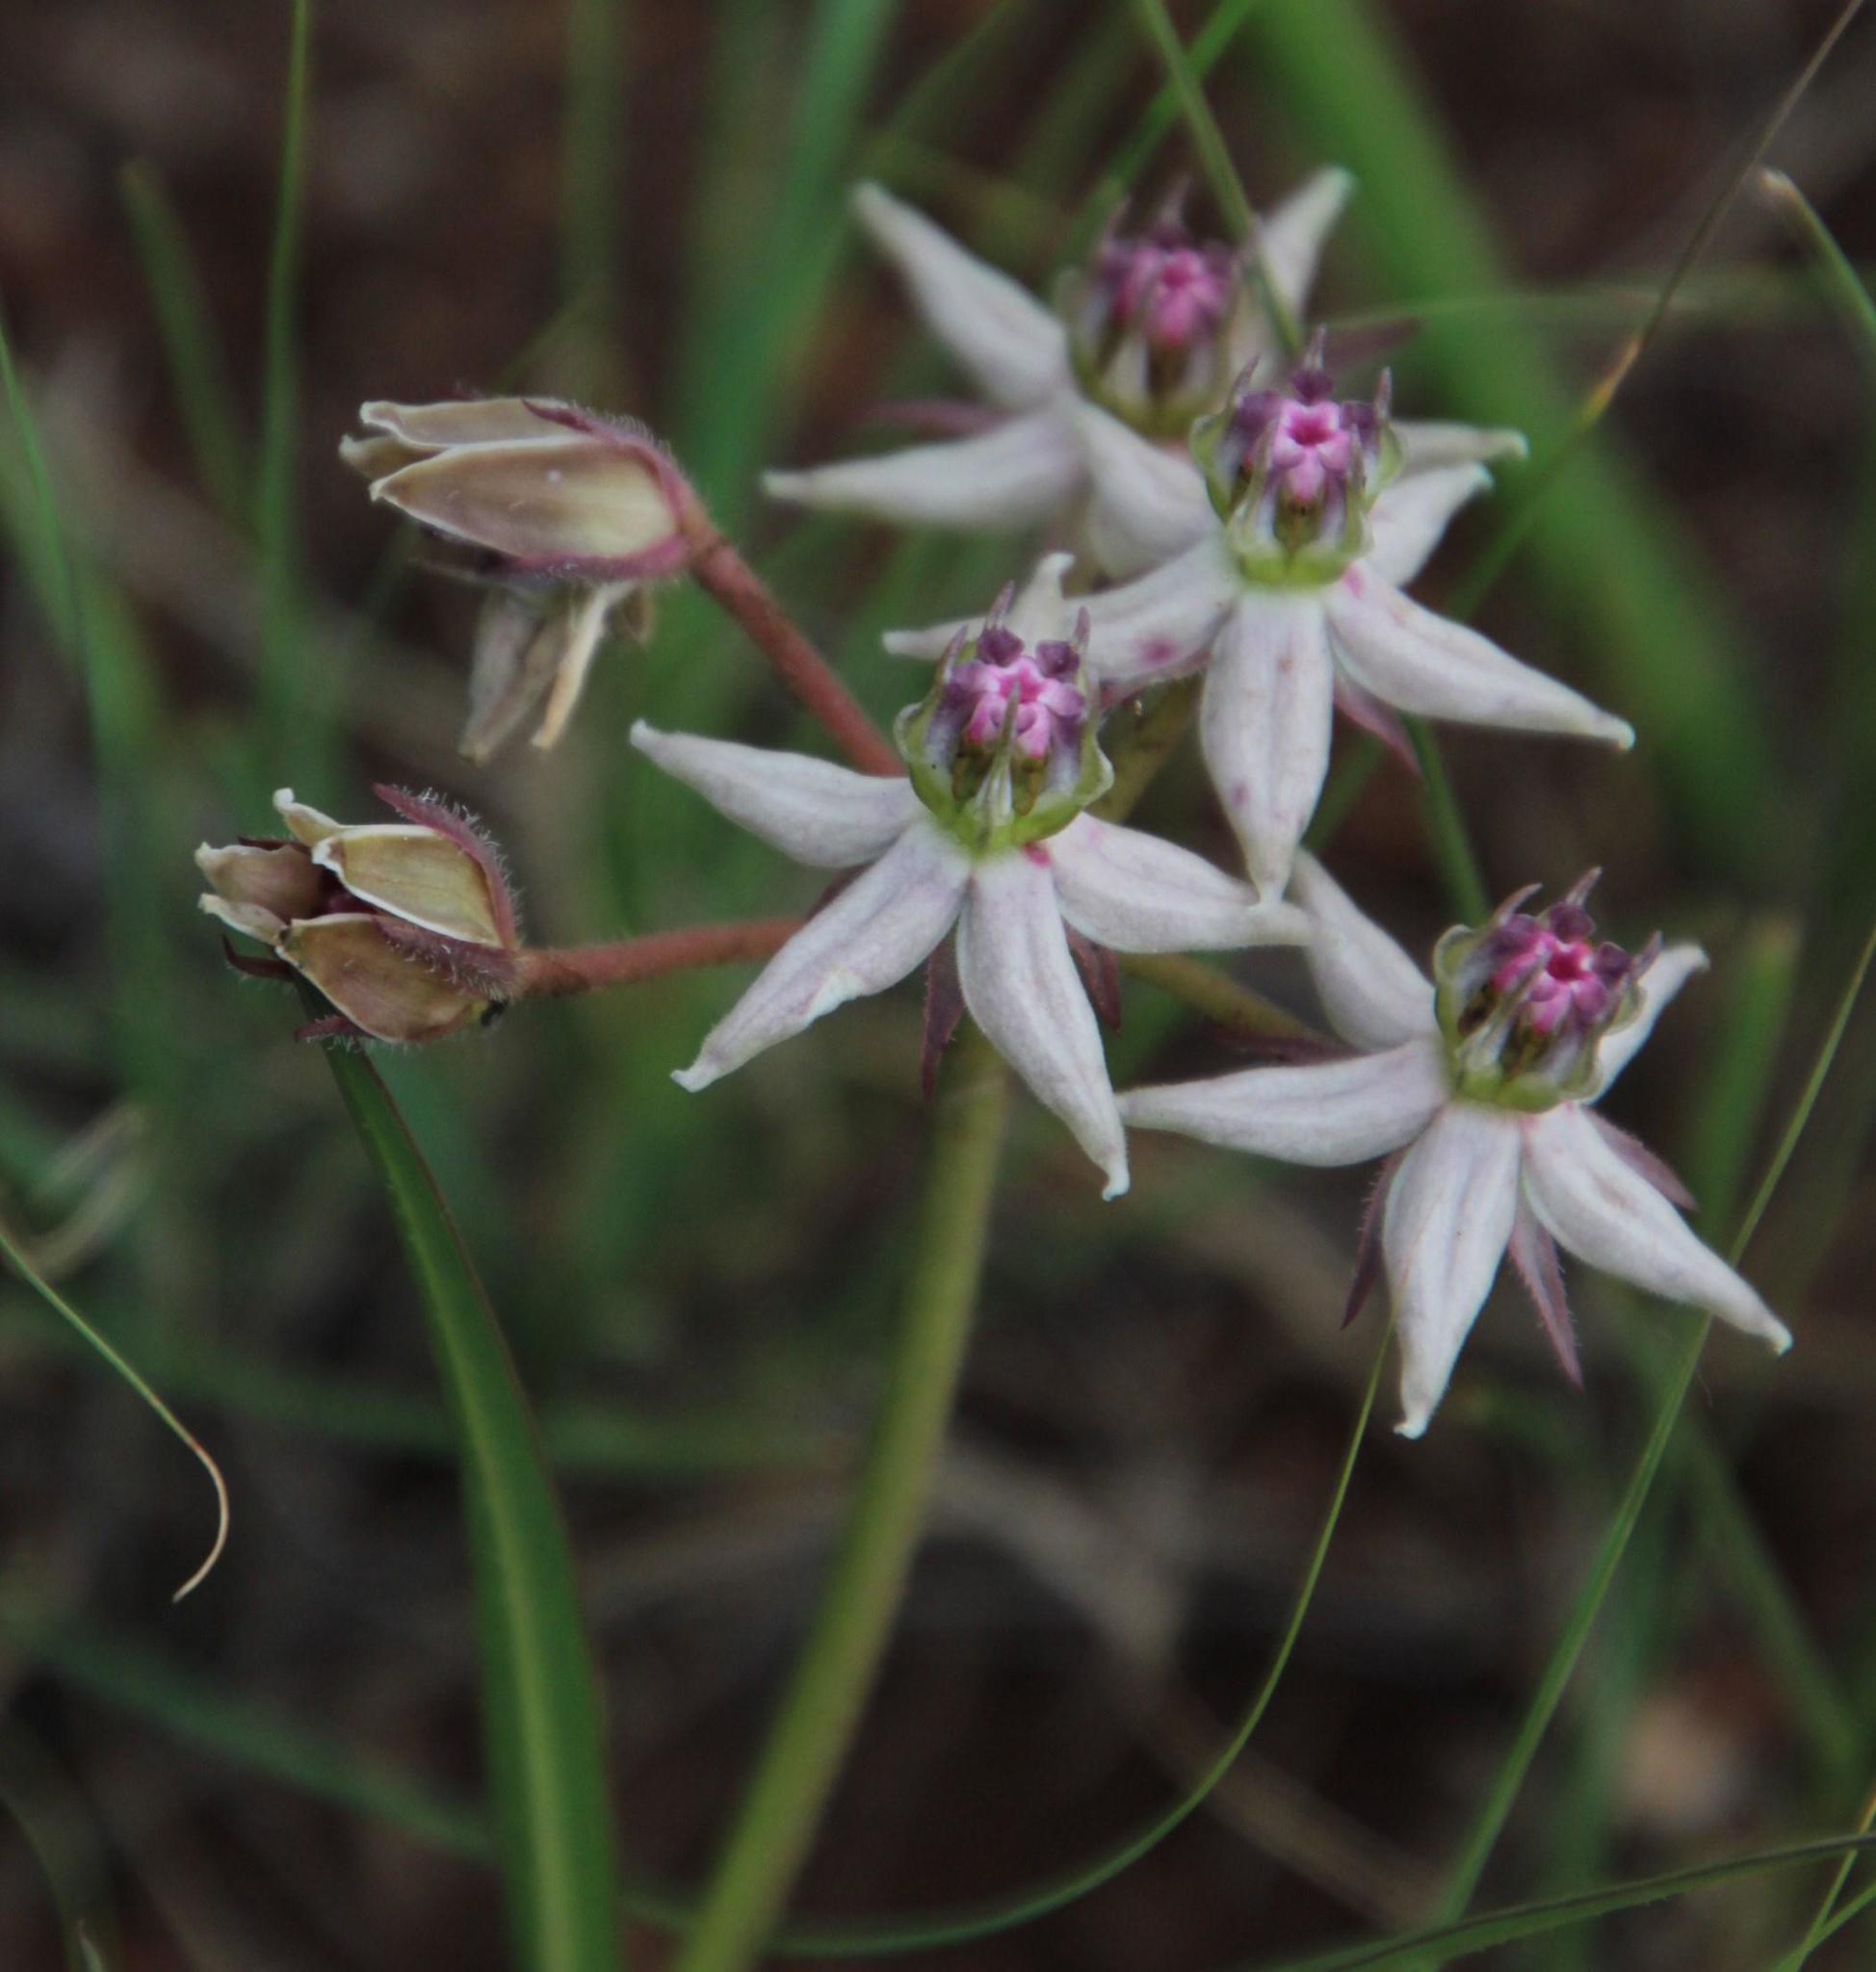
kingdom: Plantae
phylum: Tracheophyta
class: Magnoliopsida
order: Gentianales
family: Apocynaceae
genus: Asclepias
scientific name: Asclepias gibba
